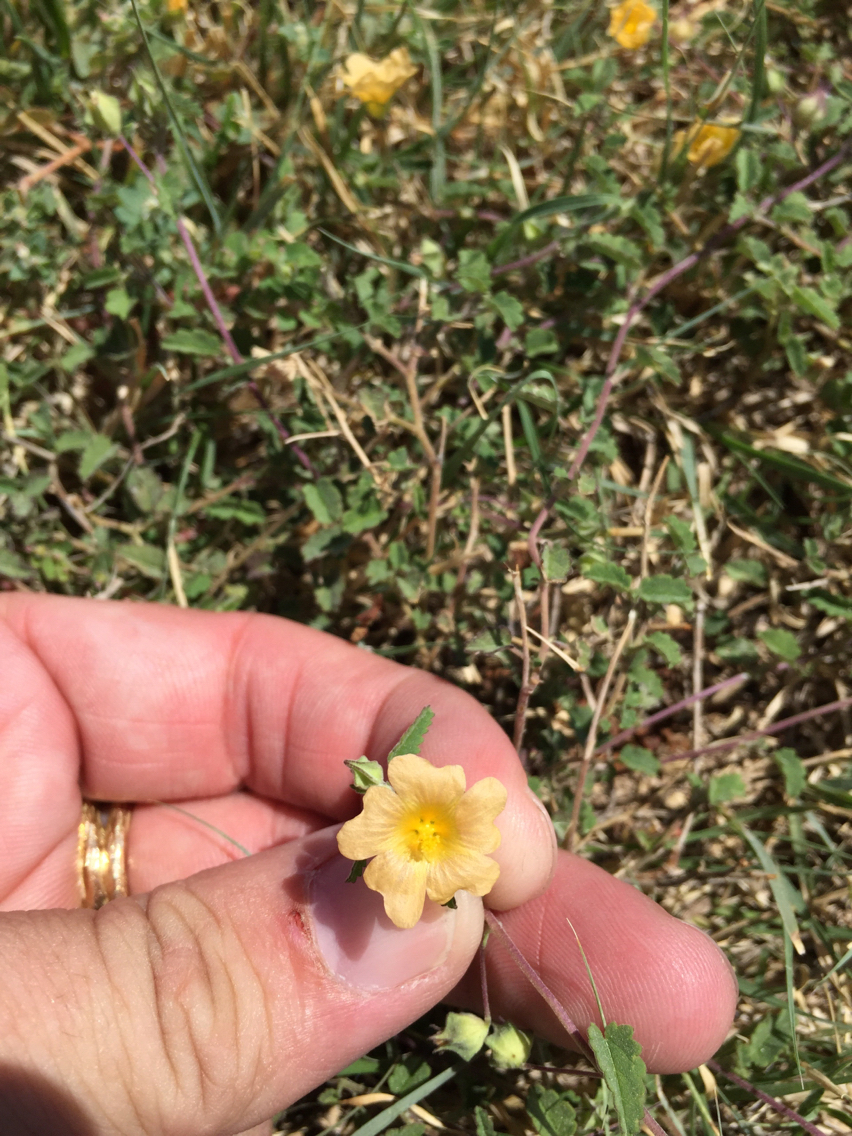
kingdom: Plantae
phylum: Tracheophyta
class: Magnoliopsida
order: Malvales
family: Malvaceae
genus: Sida
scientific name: Sida abutilifolia
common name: Spreading fanpetals
